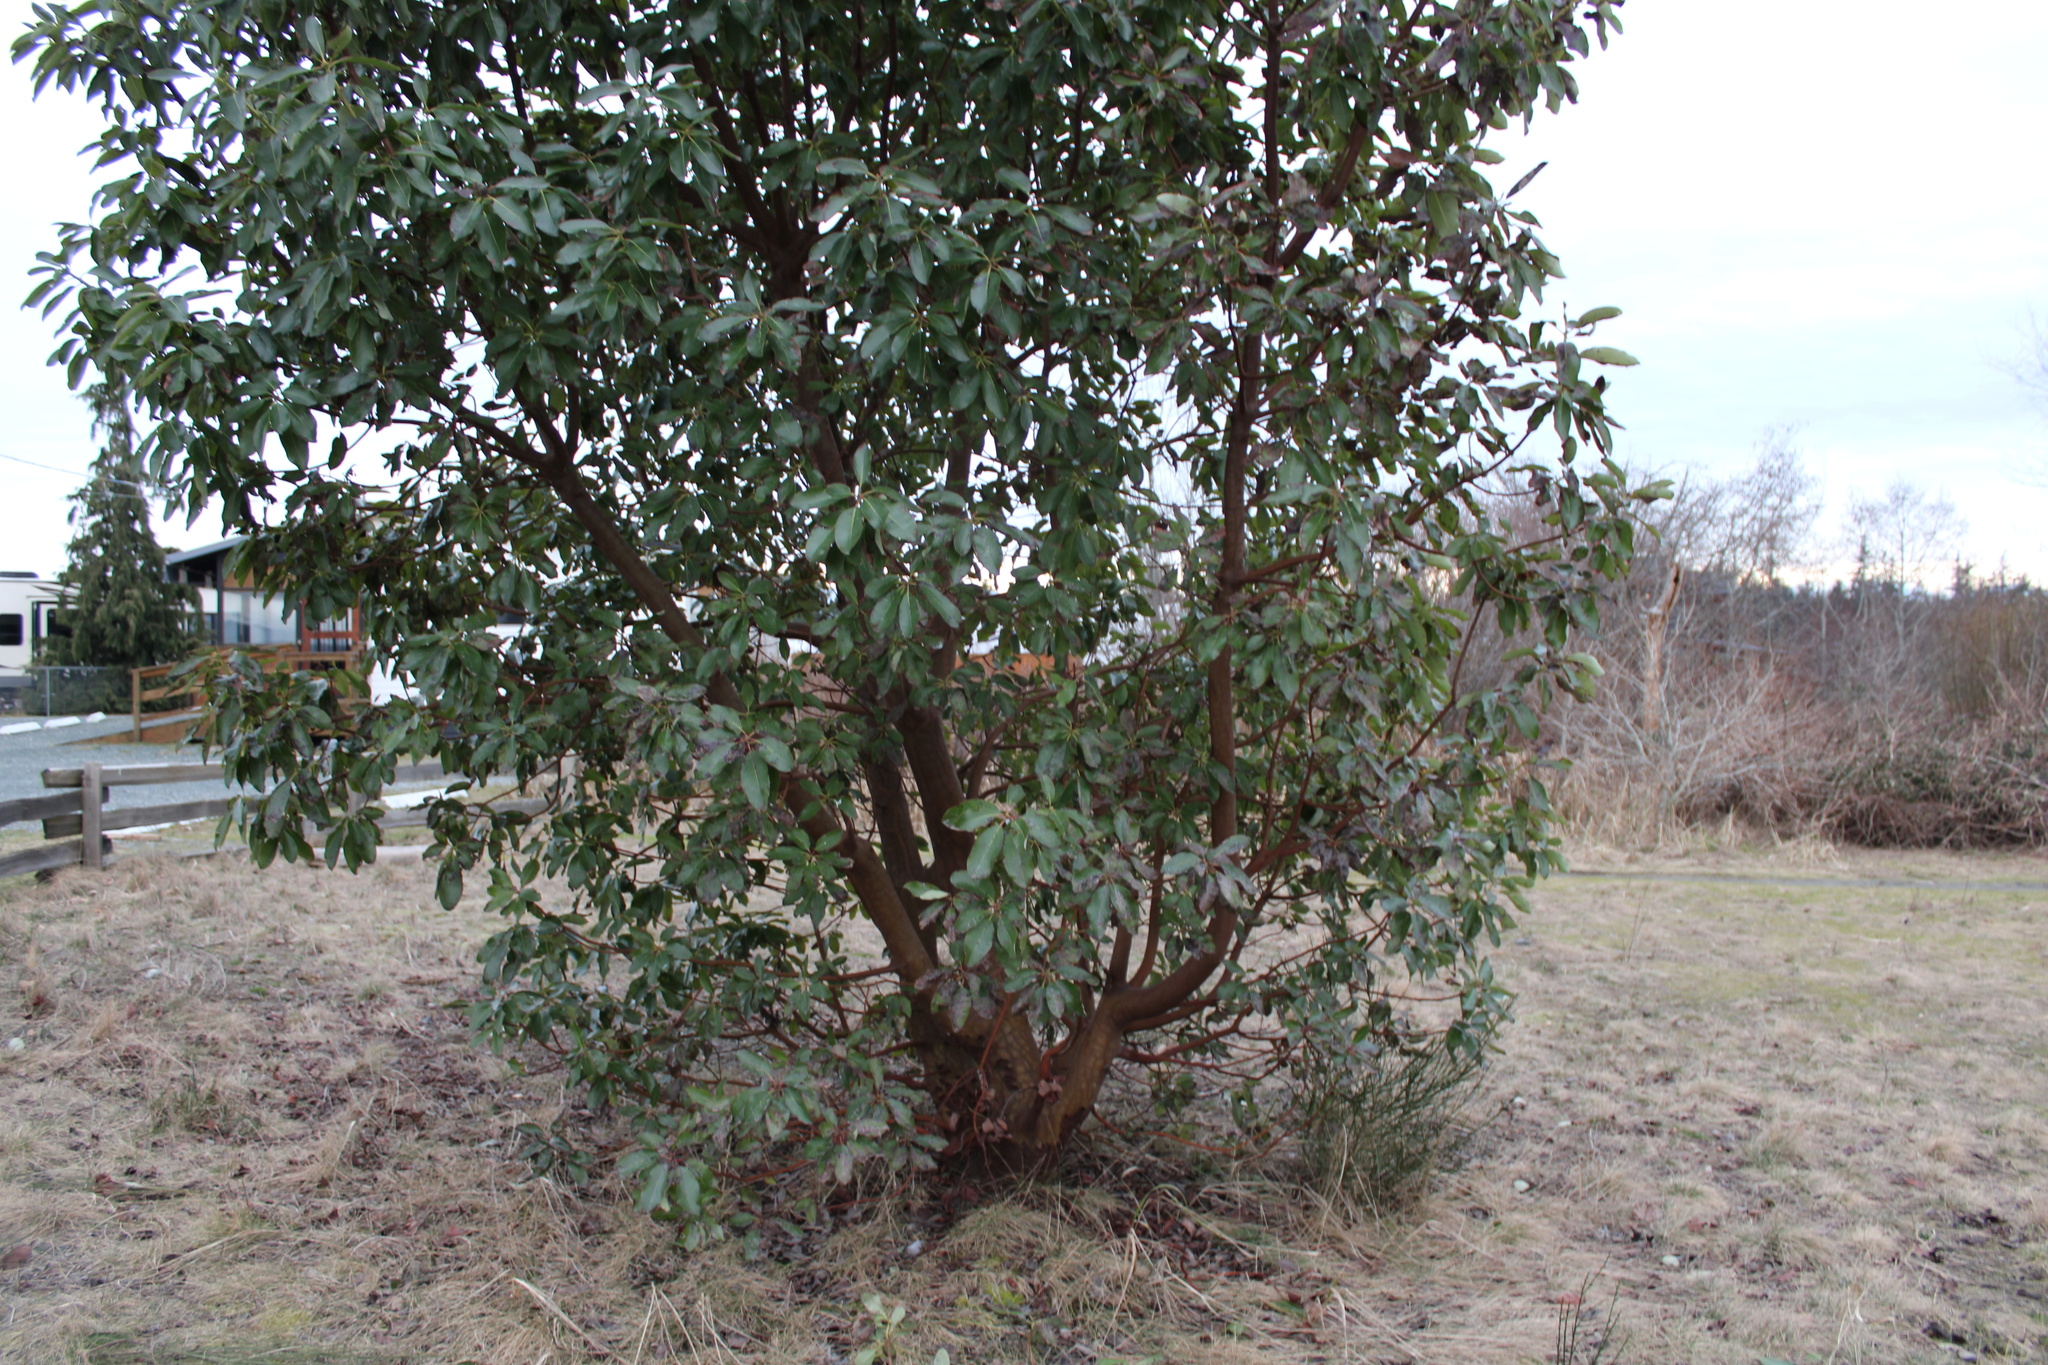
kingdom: Plantae
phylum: Tracheophyta
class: Magnoliopsida
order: Ericales
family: Ericaceae
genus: Arbutus
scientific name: Arbutus menziesii
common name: Pacific madrone
